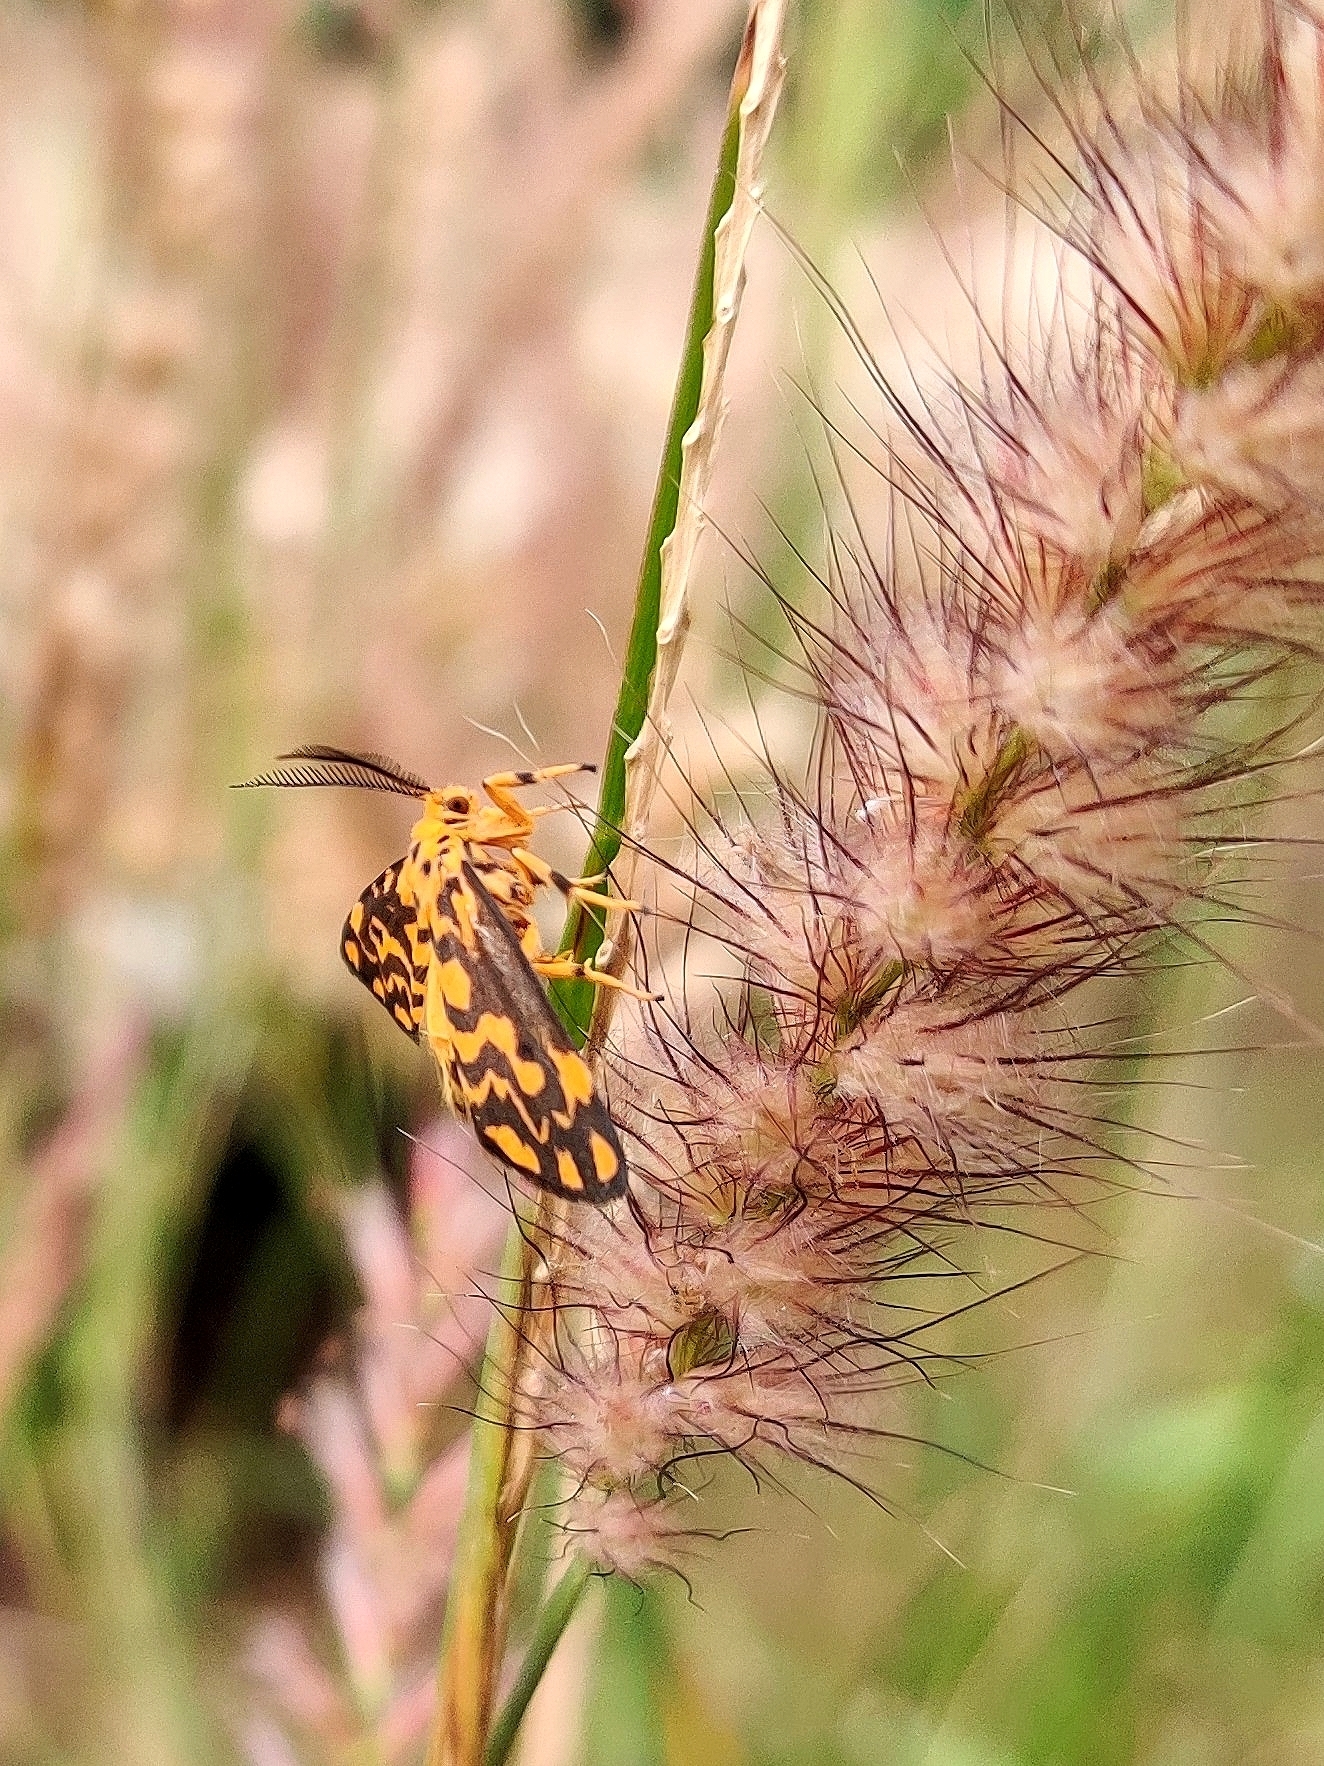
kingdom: Animalia
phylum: Arthropoda
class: Insecta
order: Lepidoptera
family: Erebidae
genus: Nepita
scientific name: Nepita conferta
